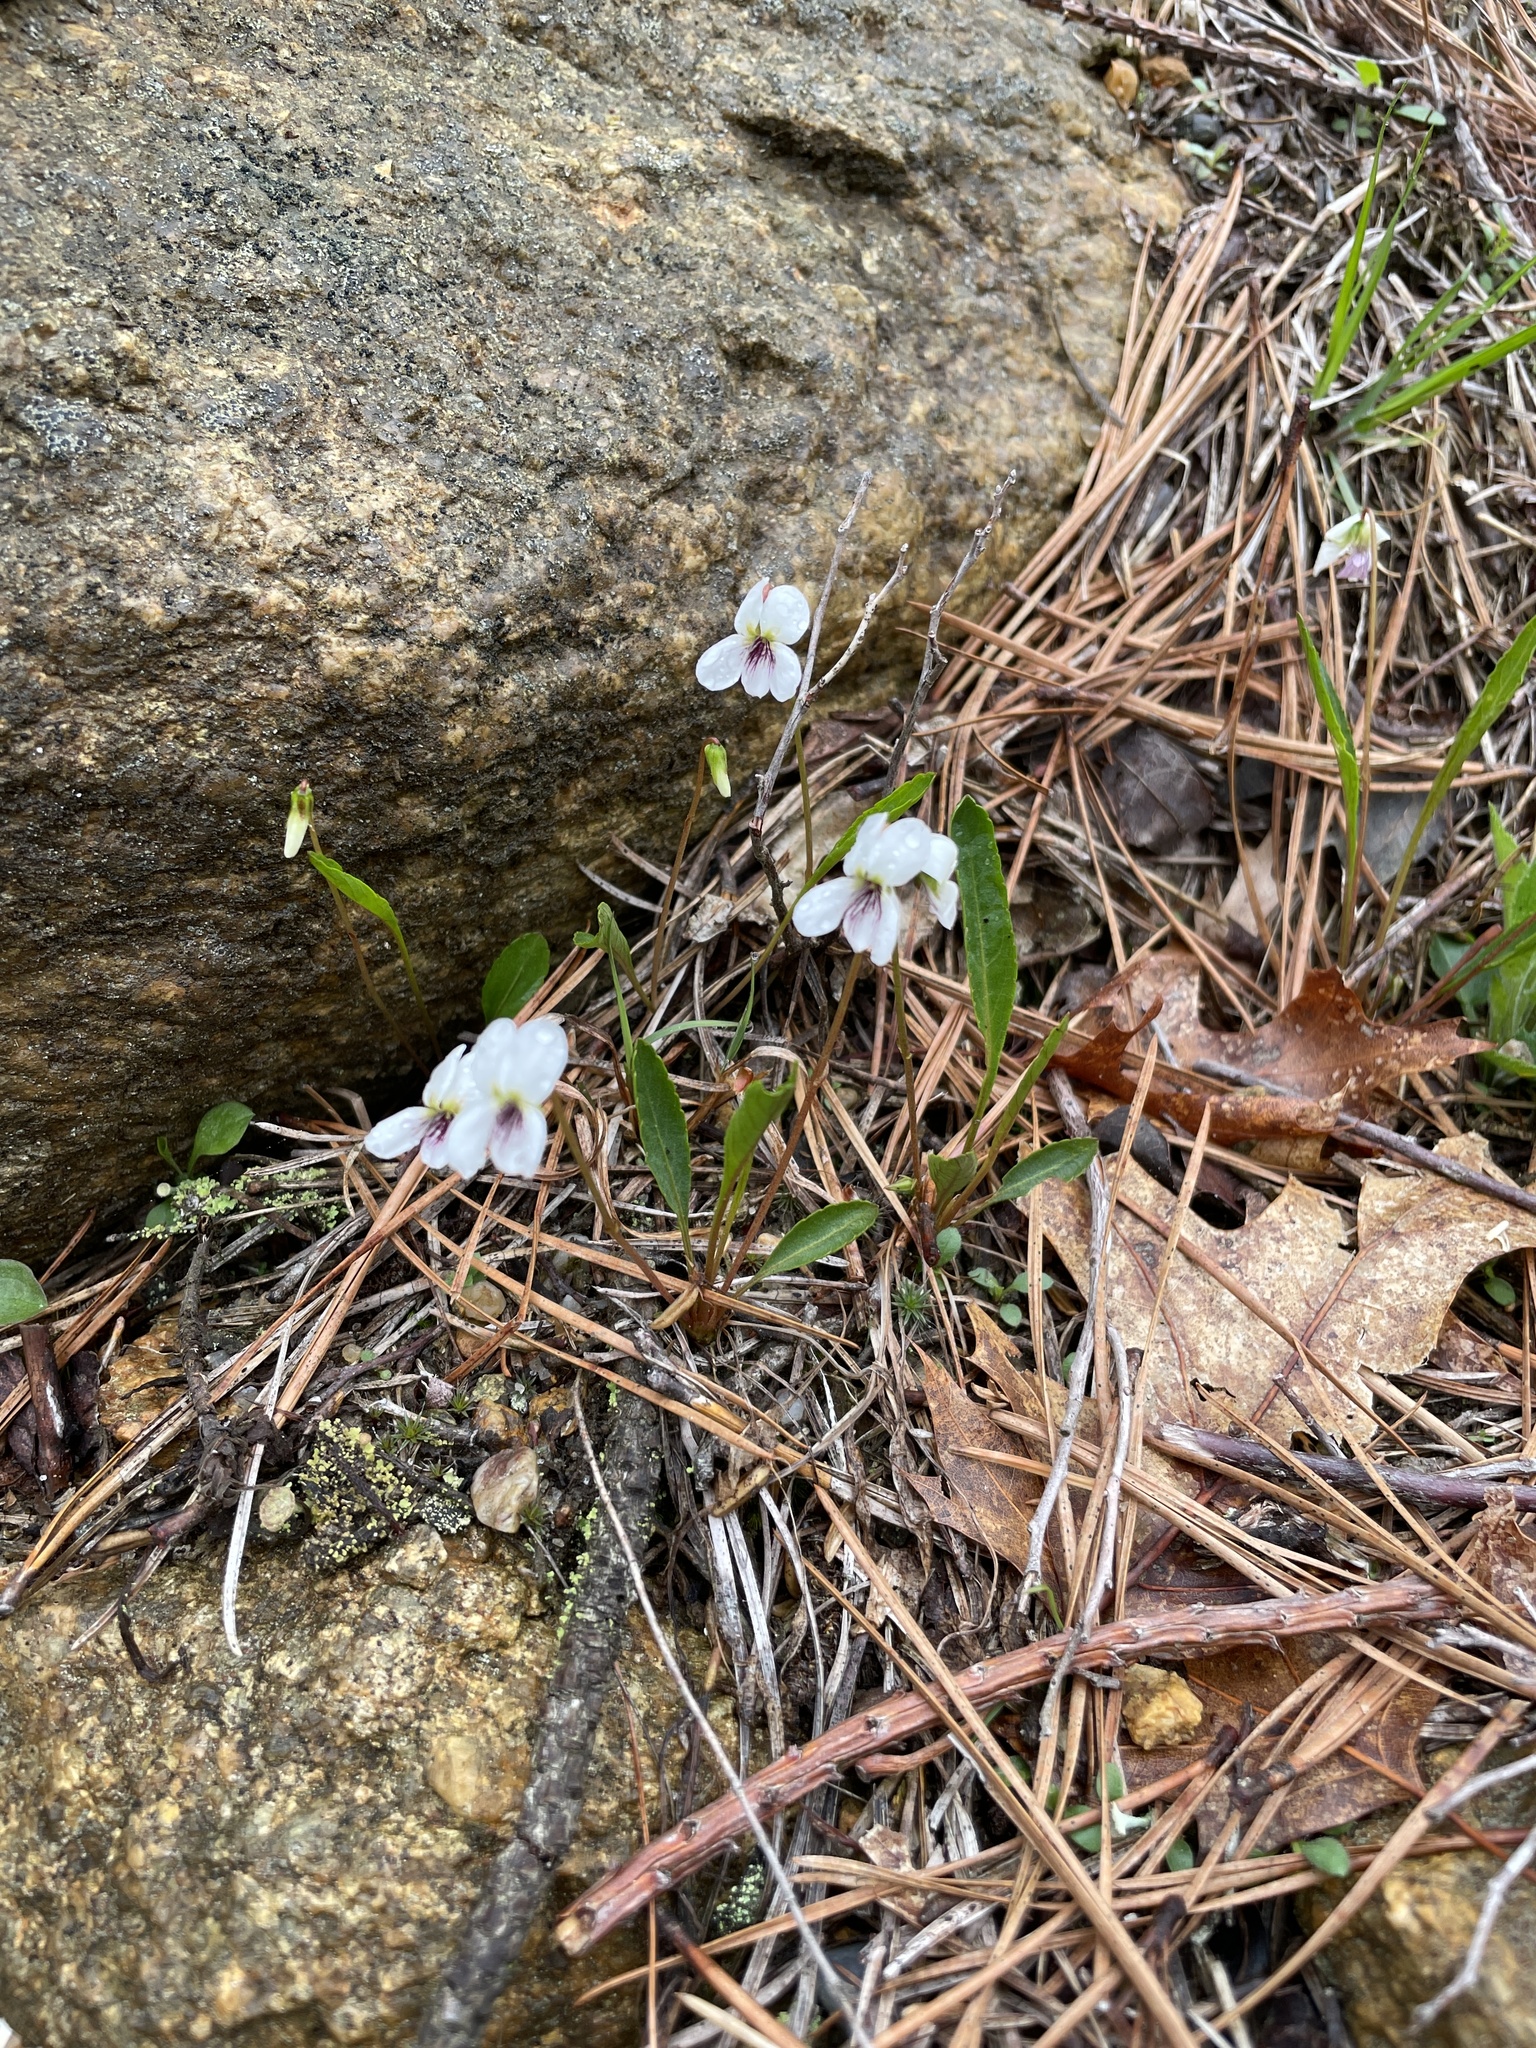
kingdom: Plantae
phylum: Tracheophyta
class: Magnoliopsida
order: Malpighiales
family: Violaceae
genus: Viola
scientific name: Viola lanceolata
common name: Bog white violet
